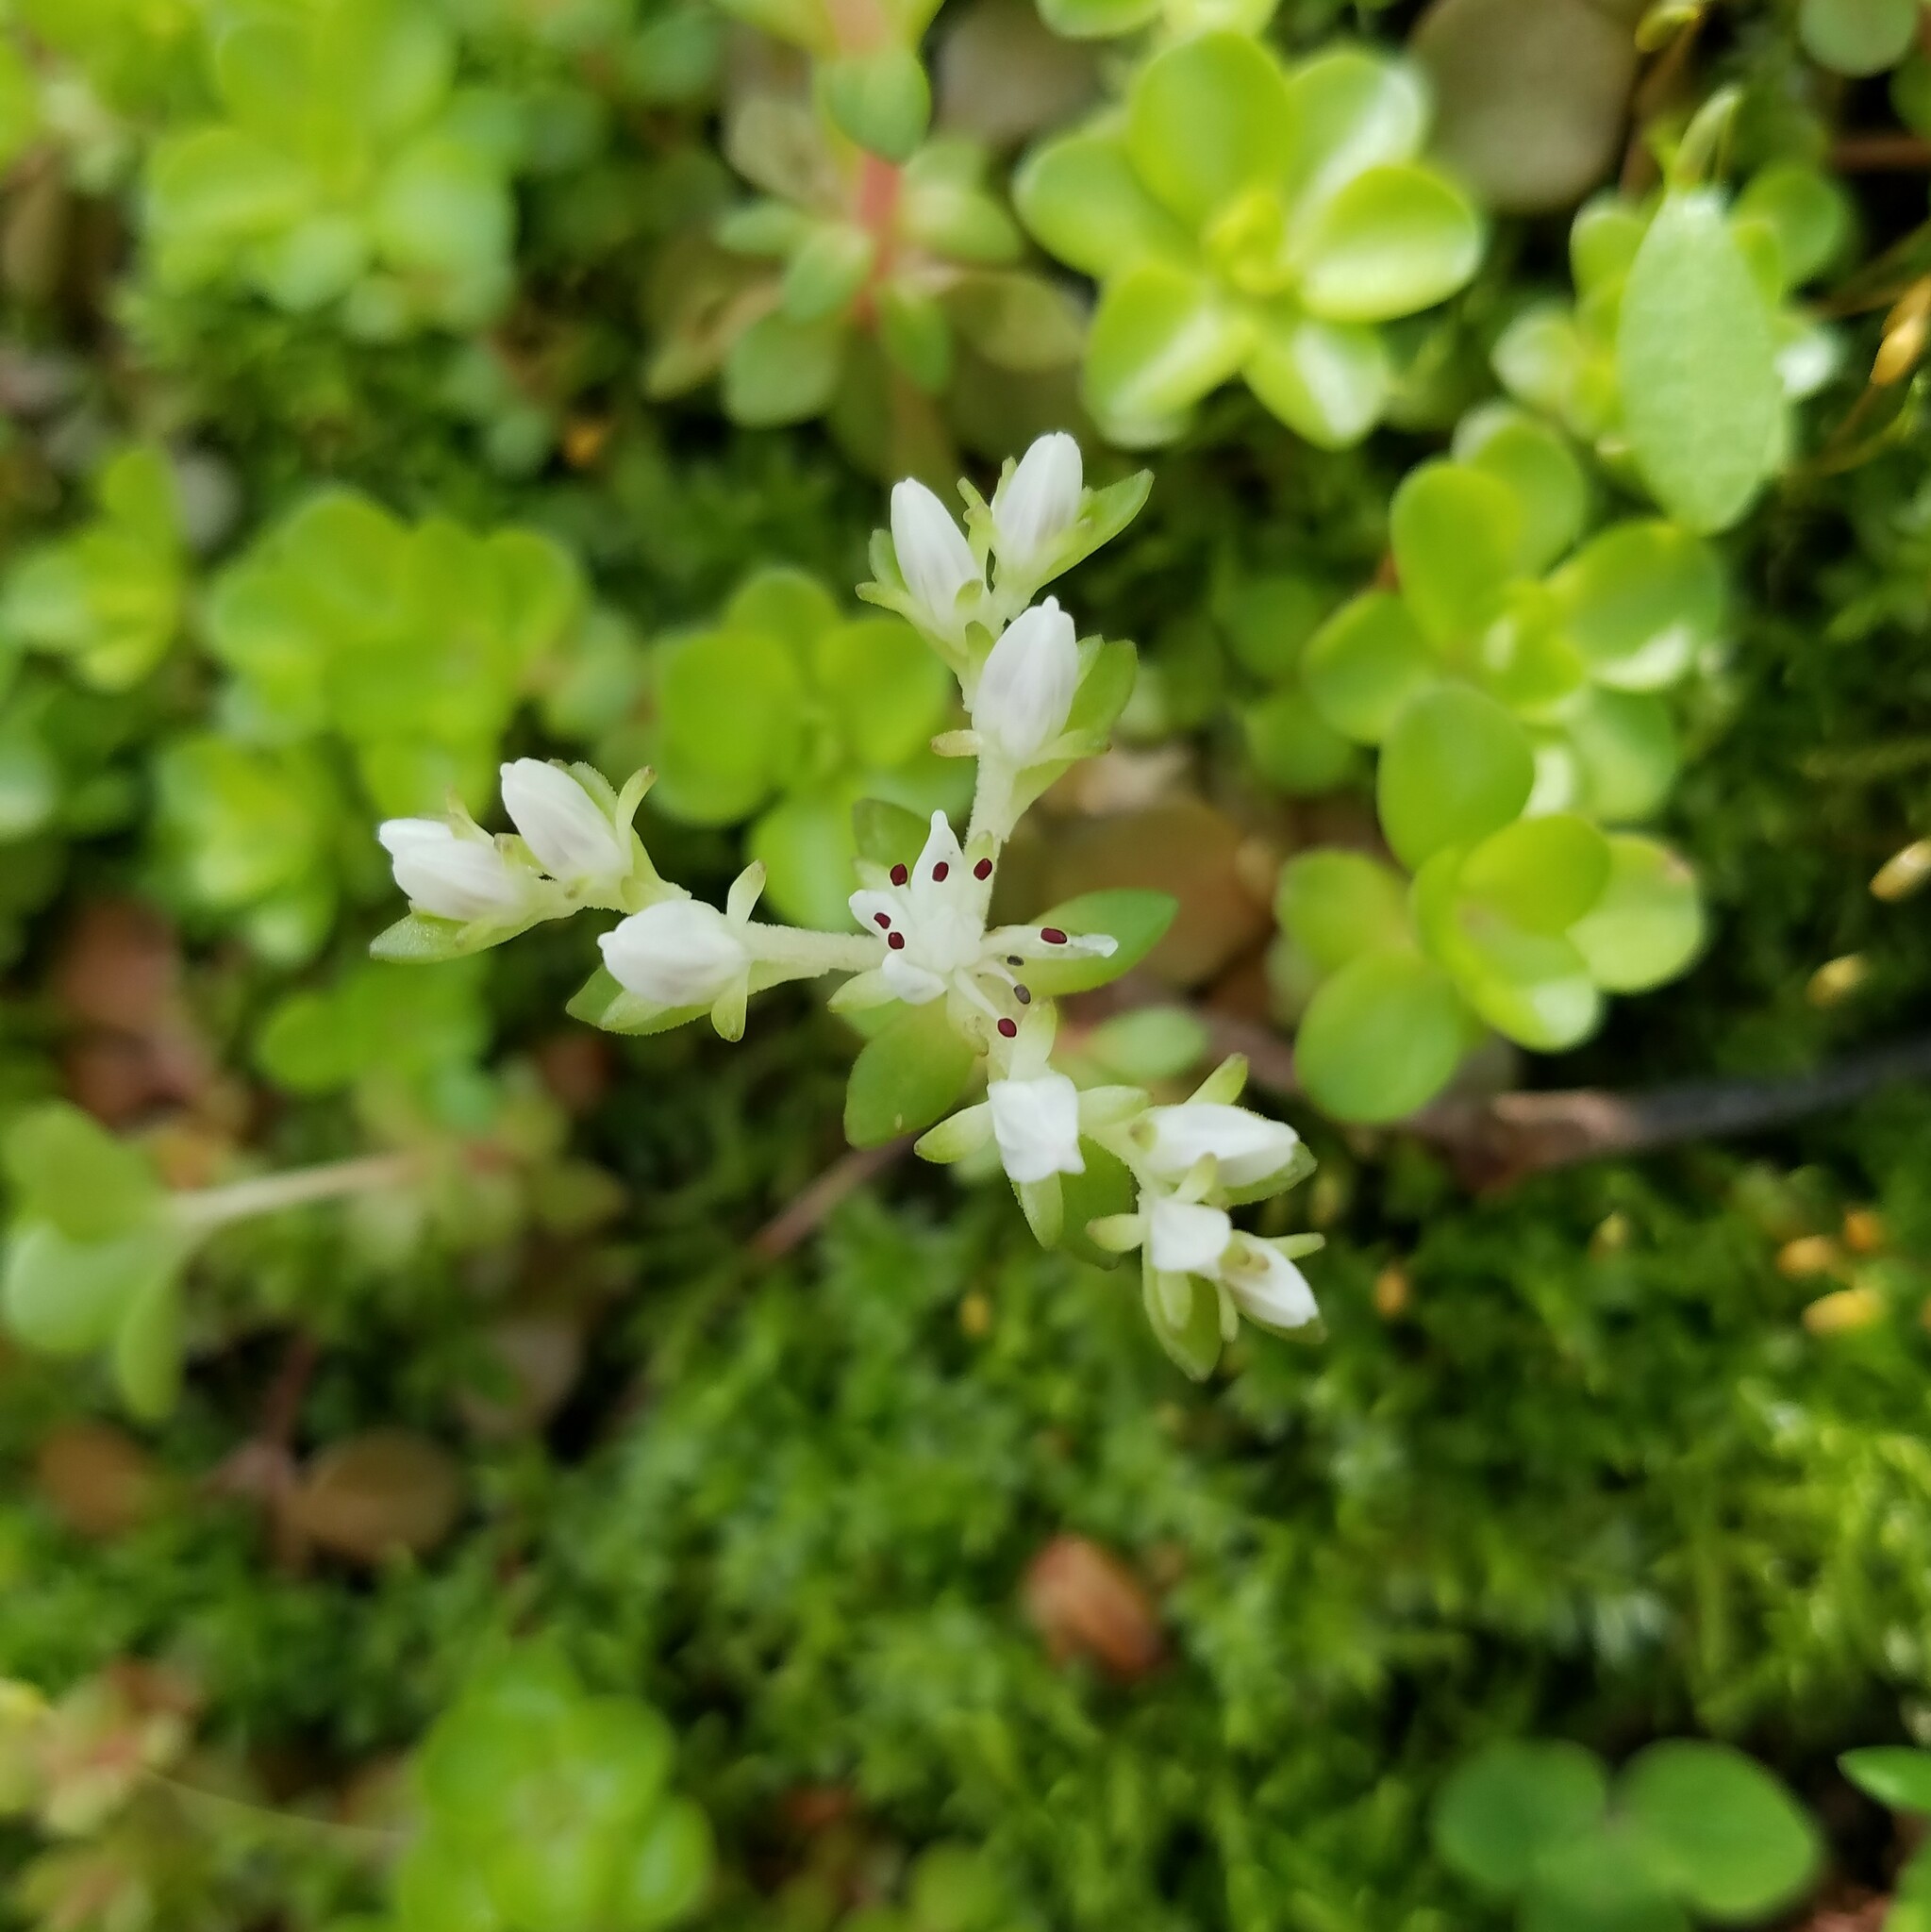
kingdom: Plantae
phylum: Tracheophyta
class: Magnoliopsida
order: Saxifragales
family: Crassulaceae
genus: Sedum
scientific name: Sedum ternatum
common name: Wild stonecrop
